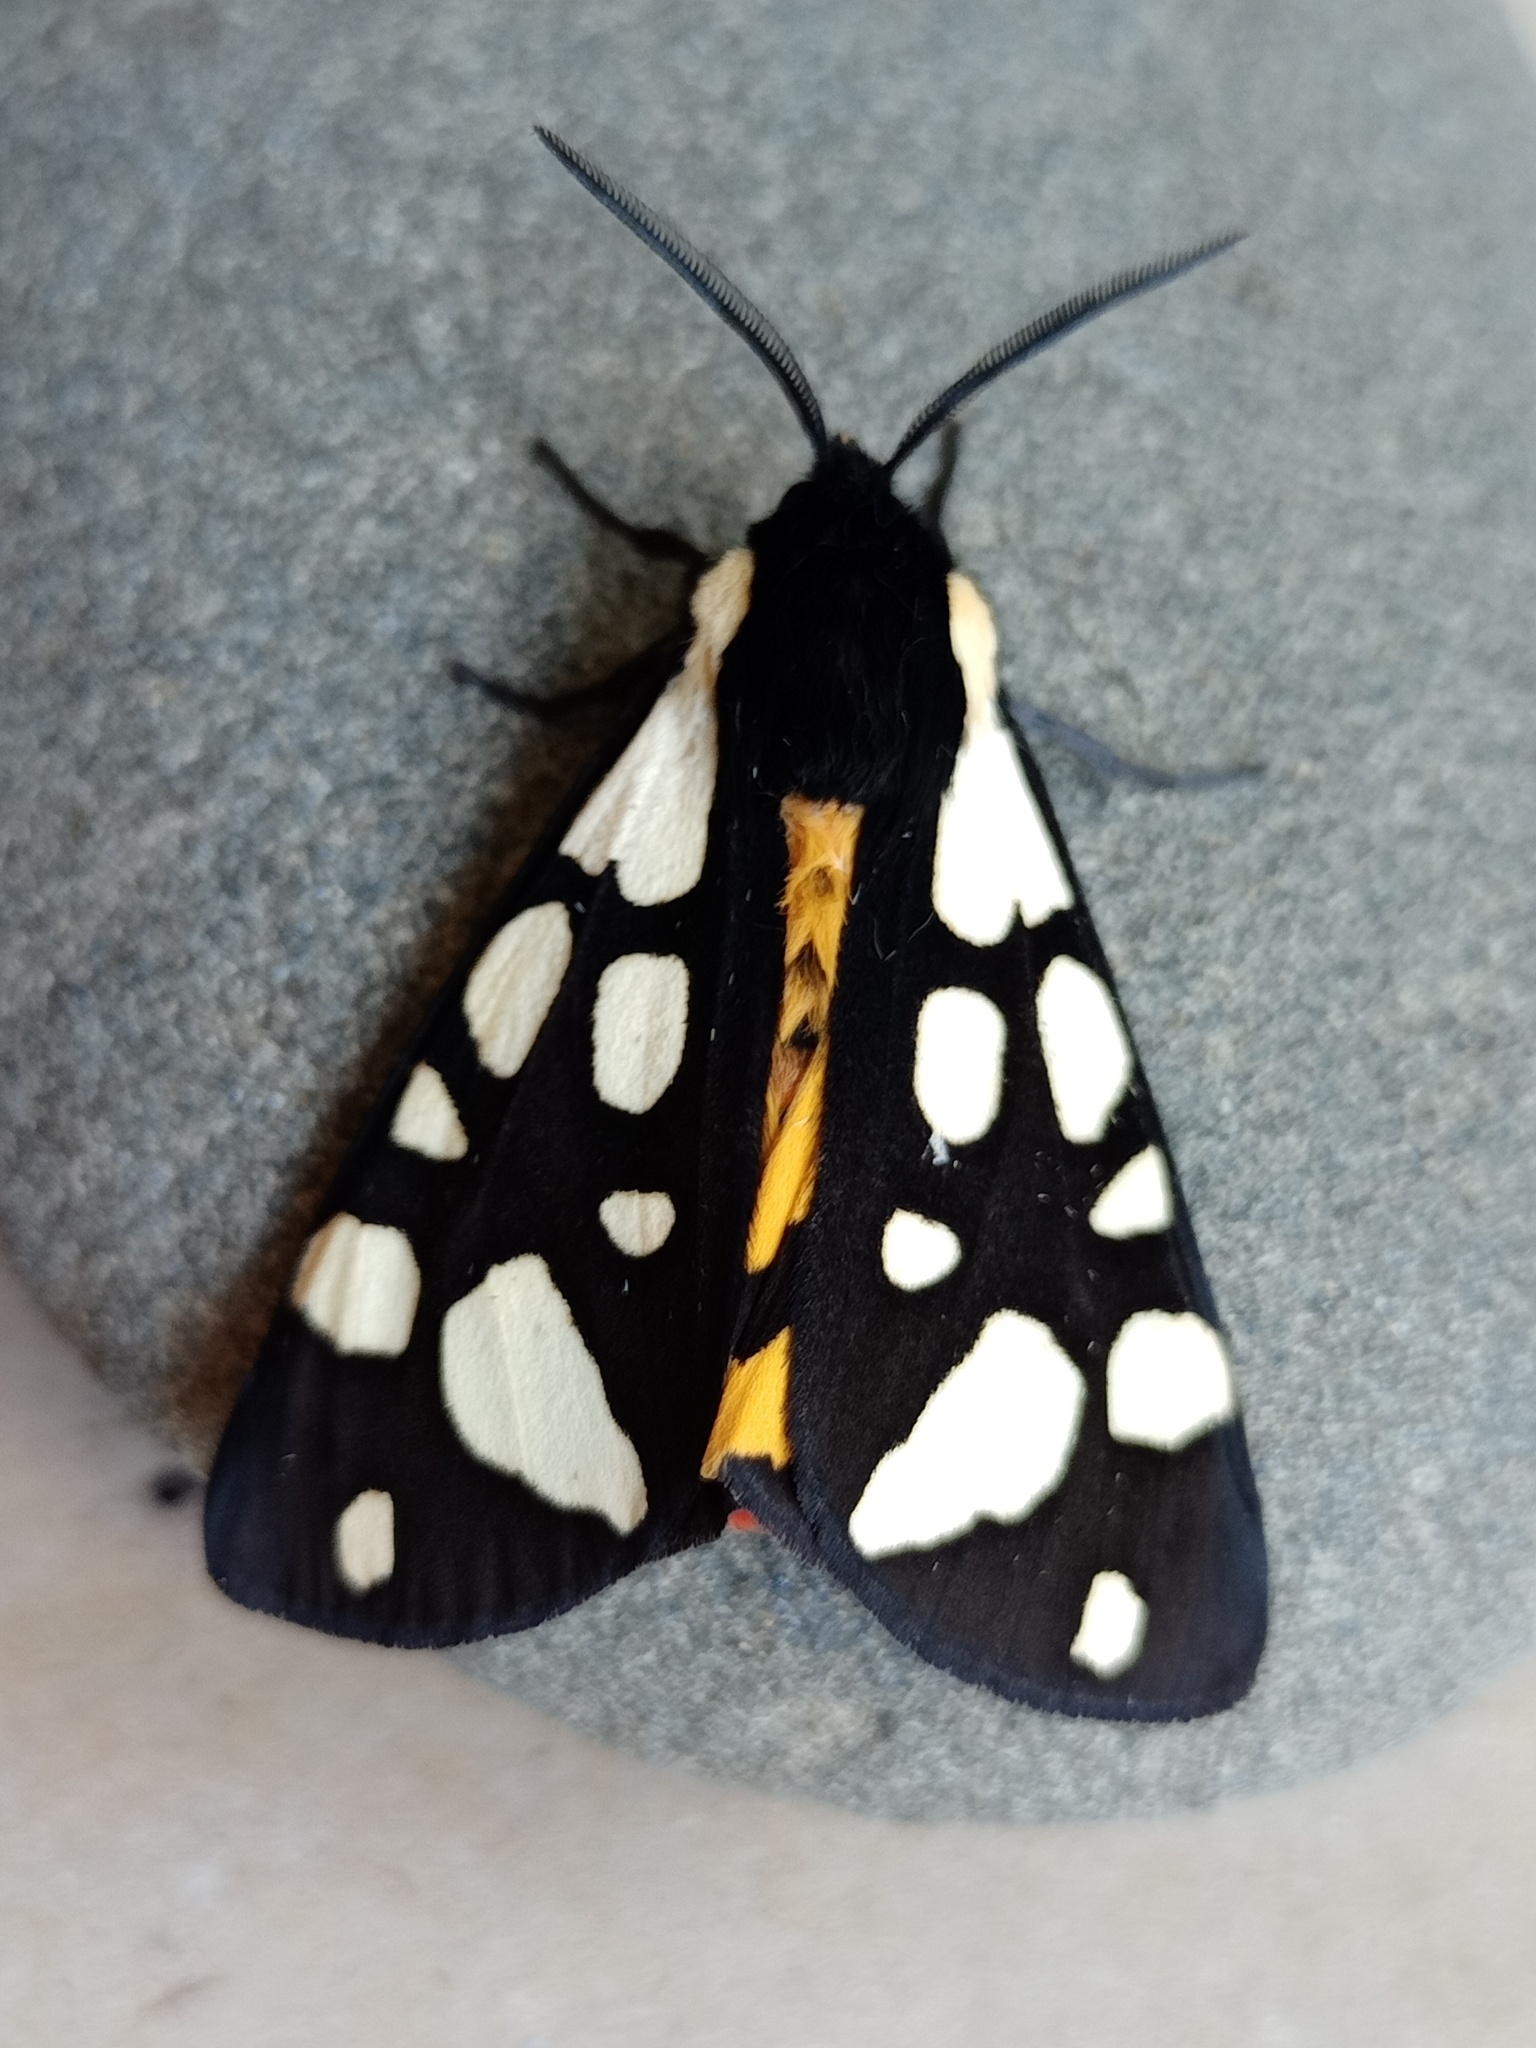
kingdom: Animalia
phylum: Arthropoda
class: Insecta
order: Lepidoptera
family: Erebidae
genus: Epicallia
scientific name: Epicallia villica
